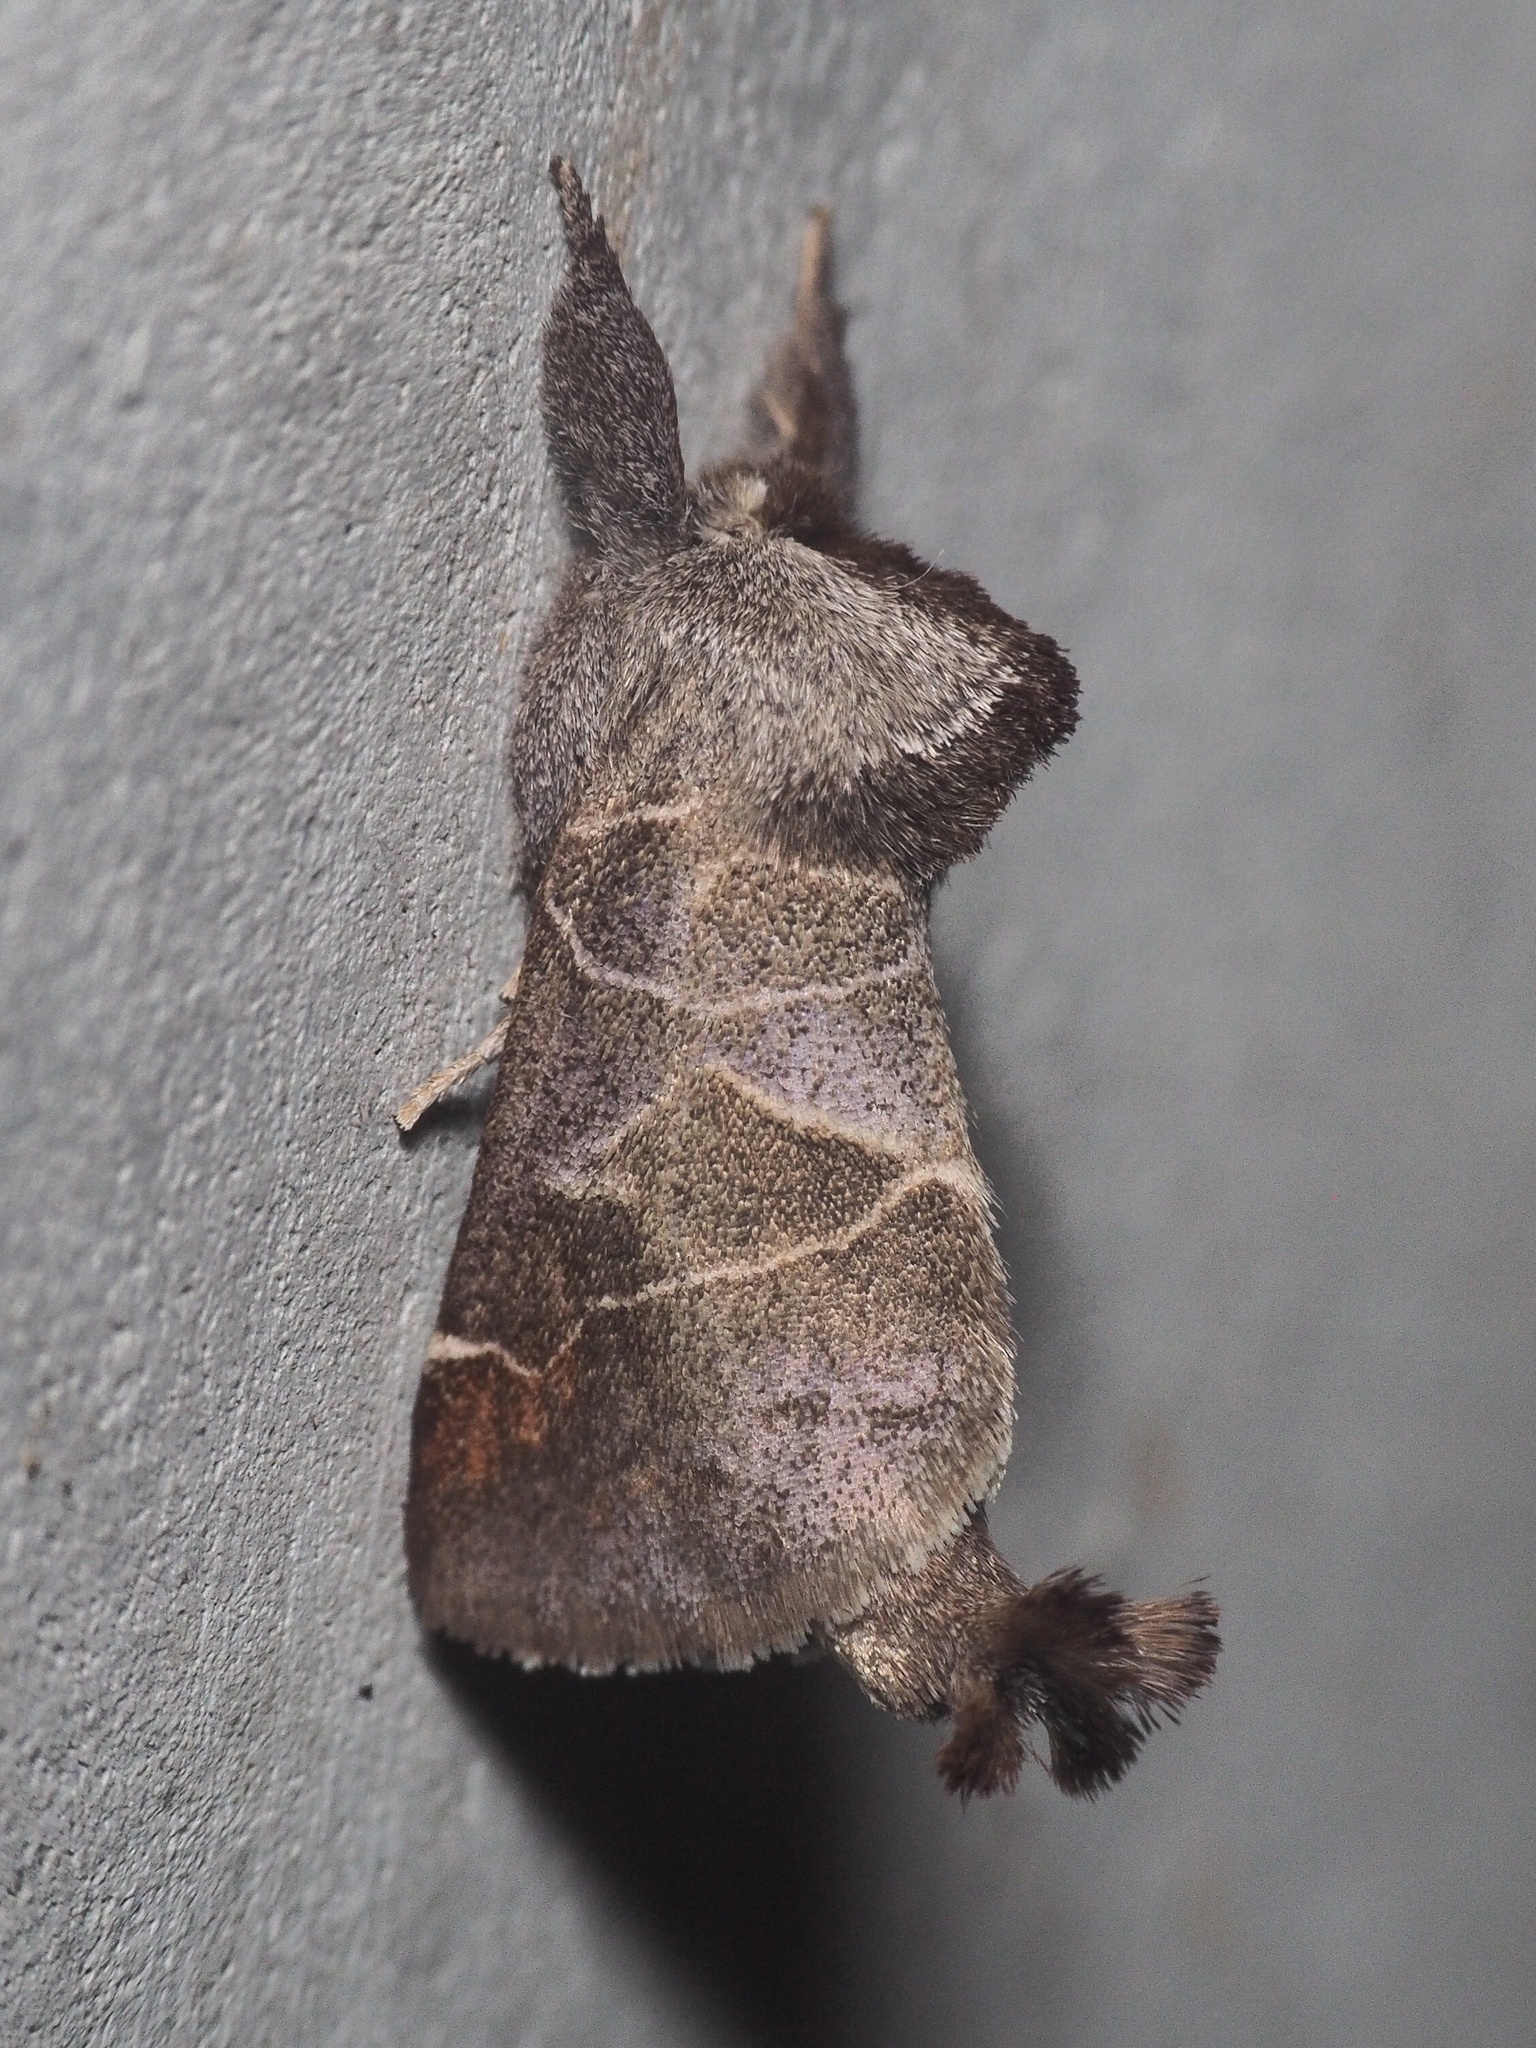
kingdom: Animalia
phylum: Arthropoda
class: Insecta
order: Lepidoptera
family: Notodontidae
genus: Clostera
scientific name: Clostera pigra
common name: Small chocolate-tip
